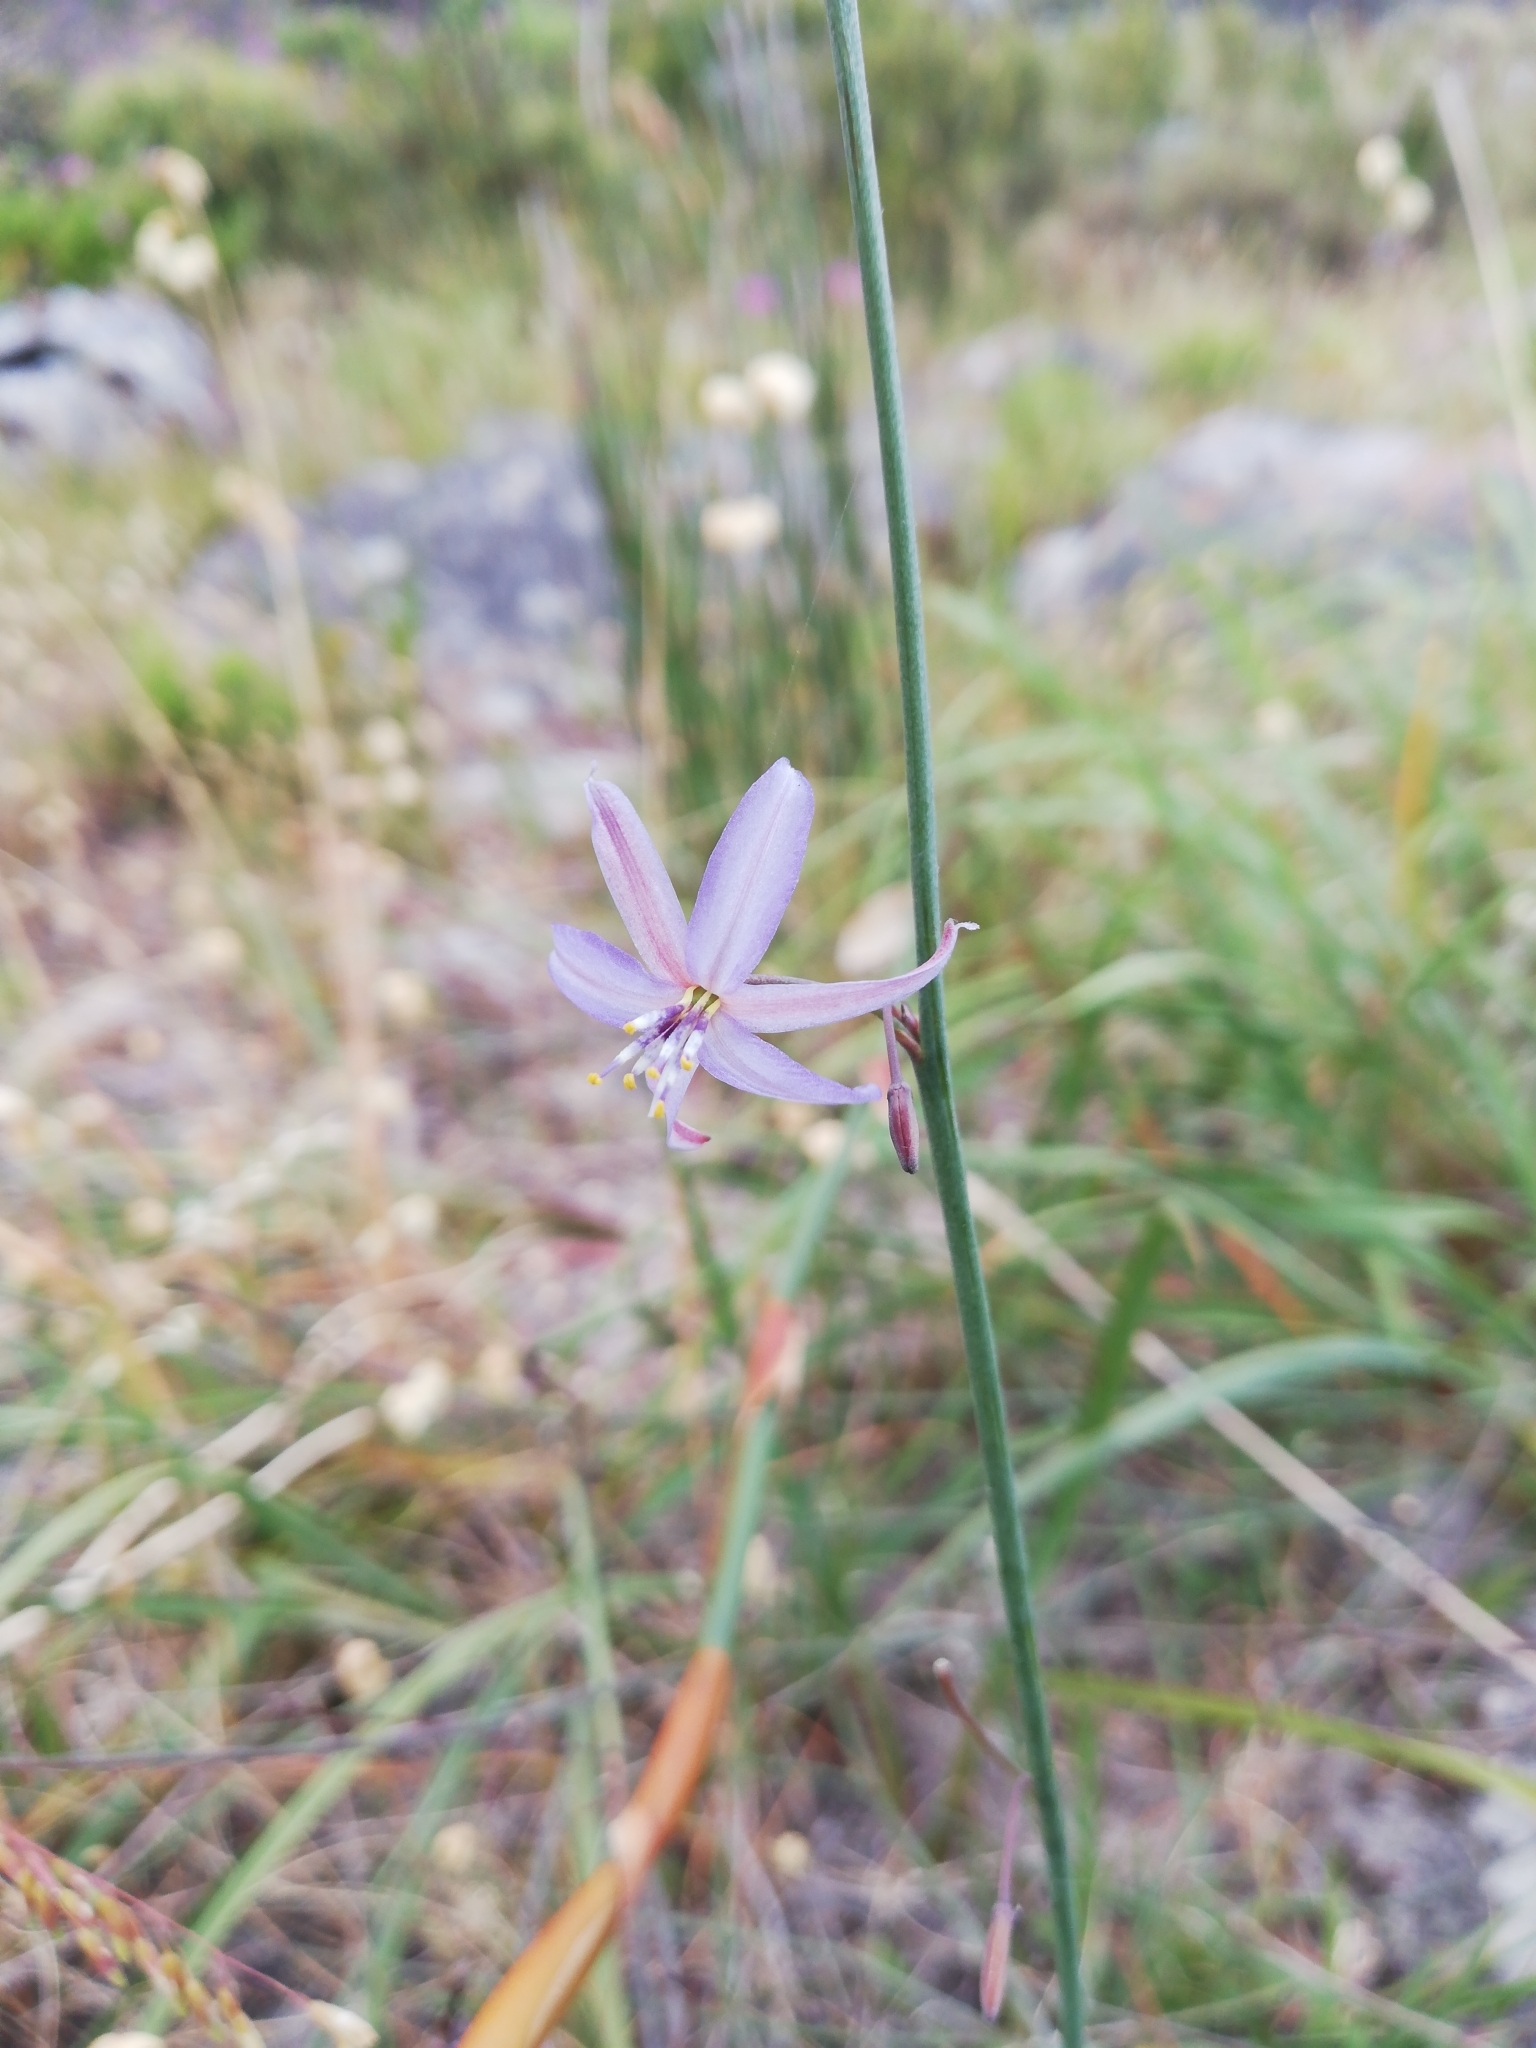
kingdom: Plantae
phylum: Tracheophyta
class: Liliopsida
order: Asparagales
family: Asphodelaceae
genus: Caesia
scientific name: Caesia contorta
